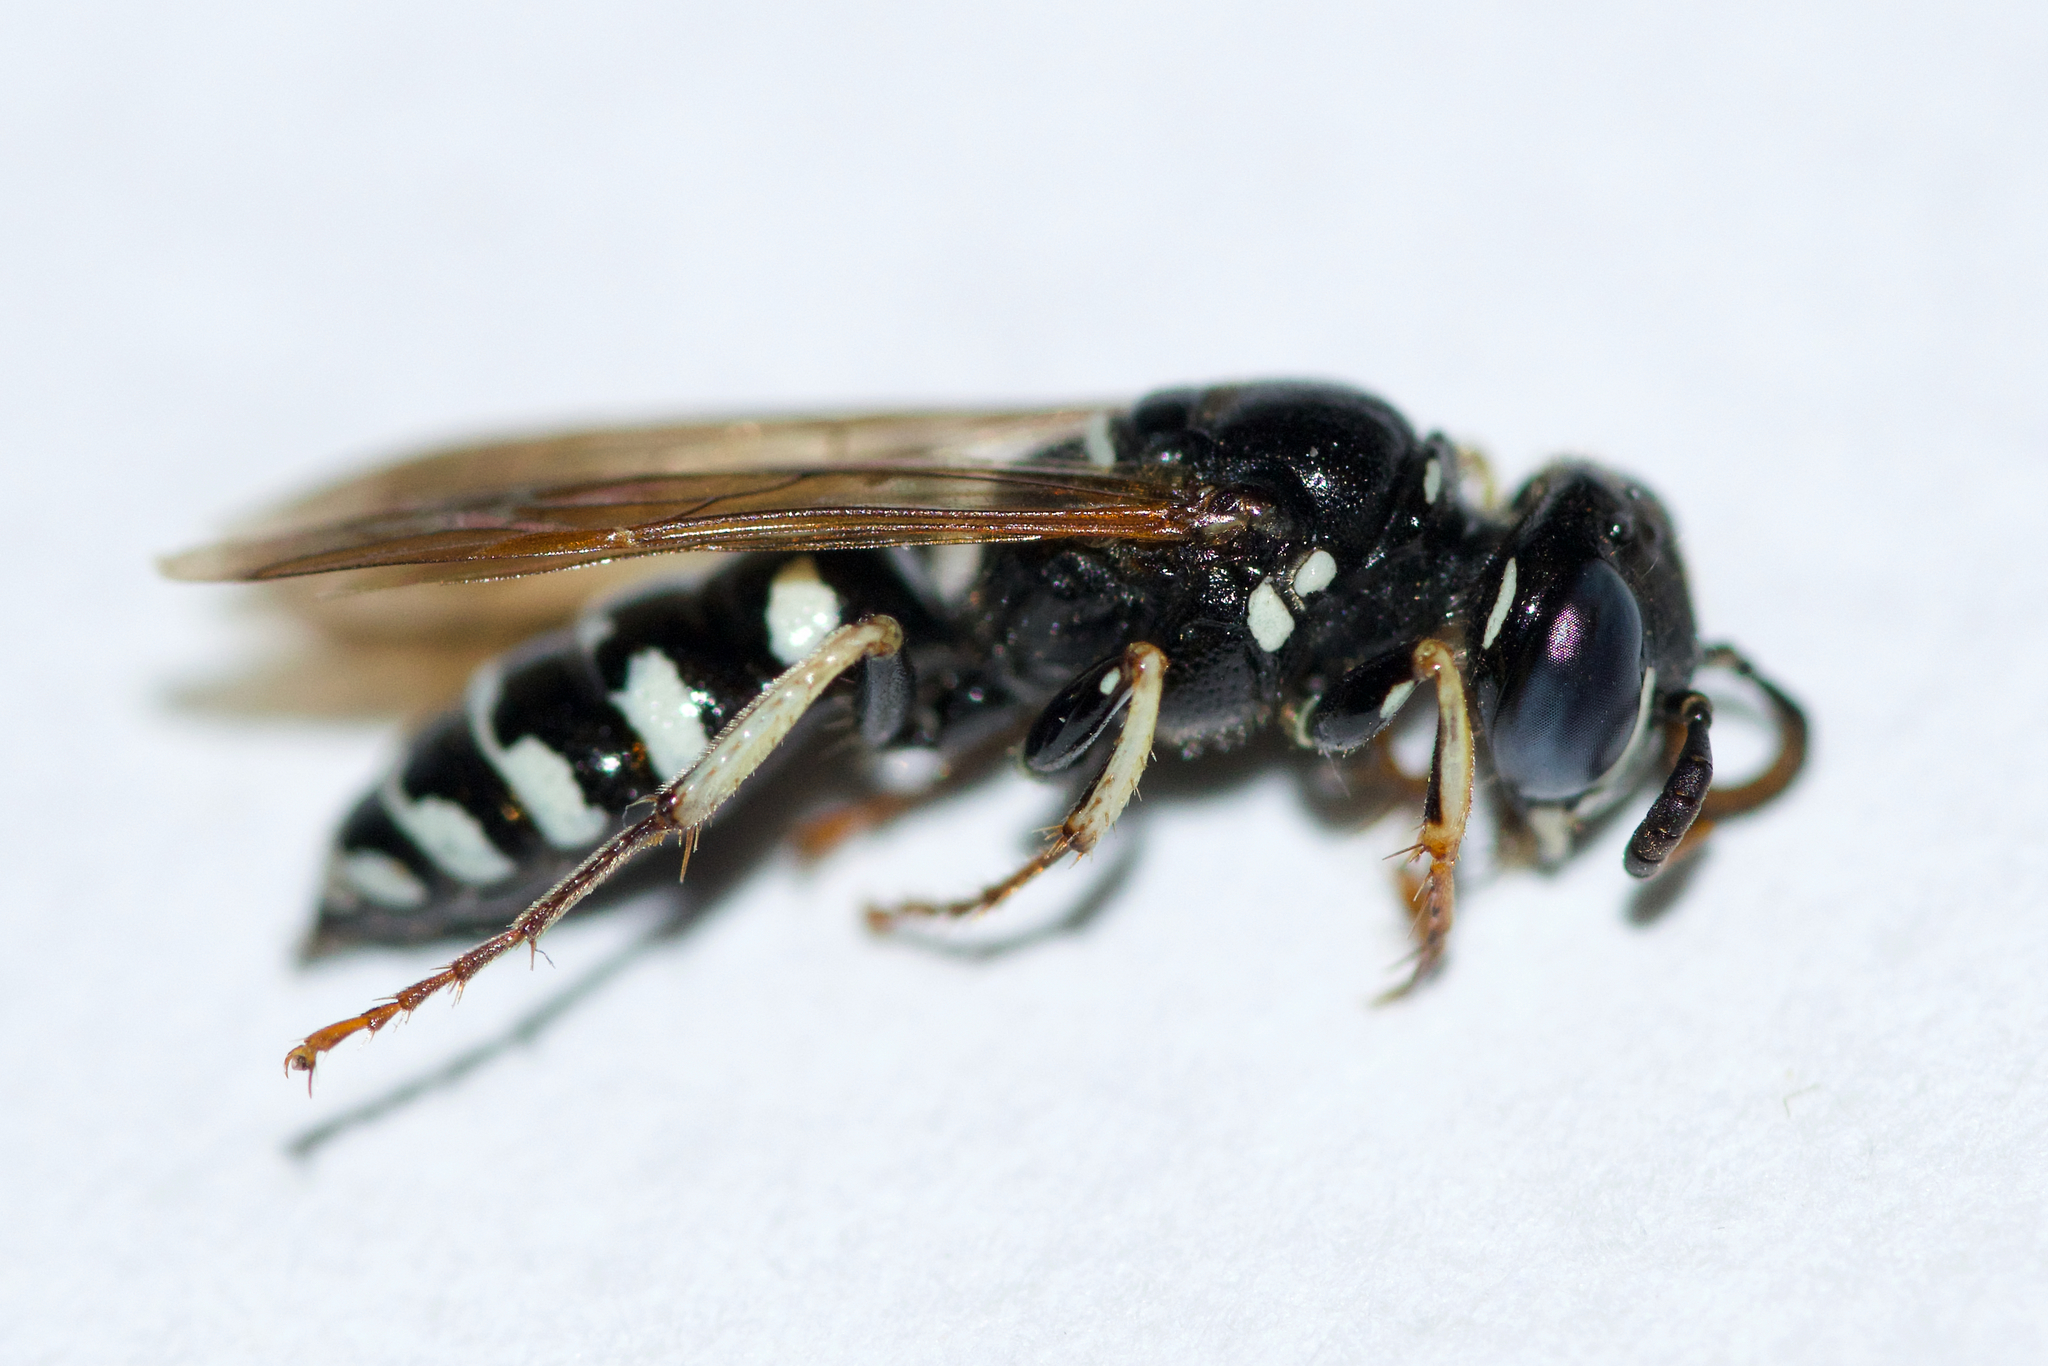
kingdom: Animalia
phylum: Arthropoda
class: Insecta
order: Hymenoptera
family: Crabronidae
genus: Philanthus
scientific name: Philanthus politus
